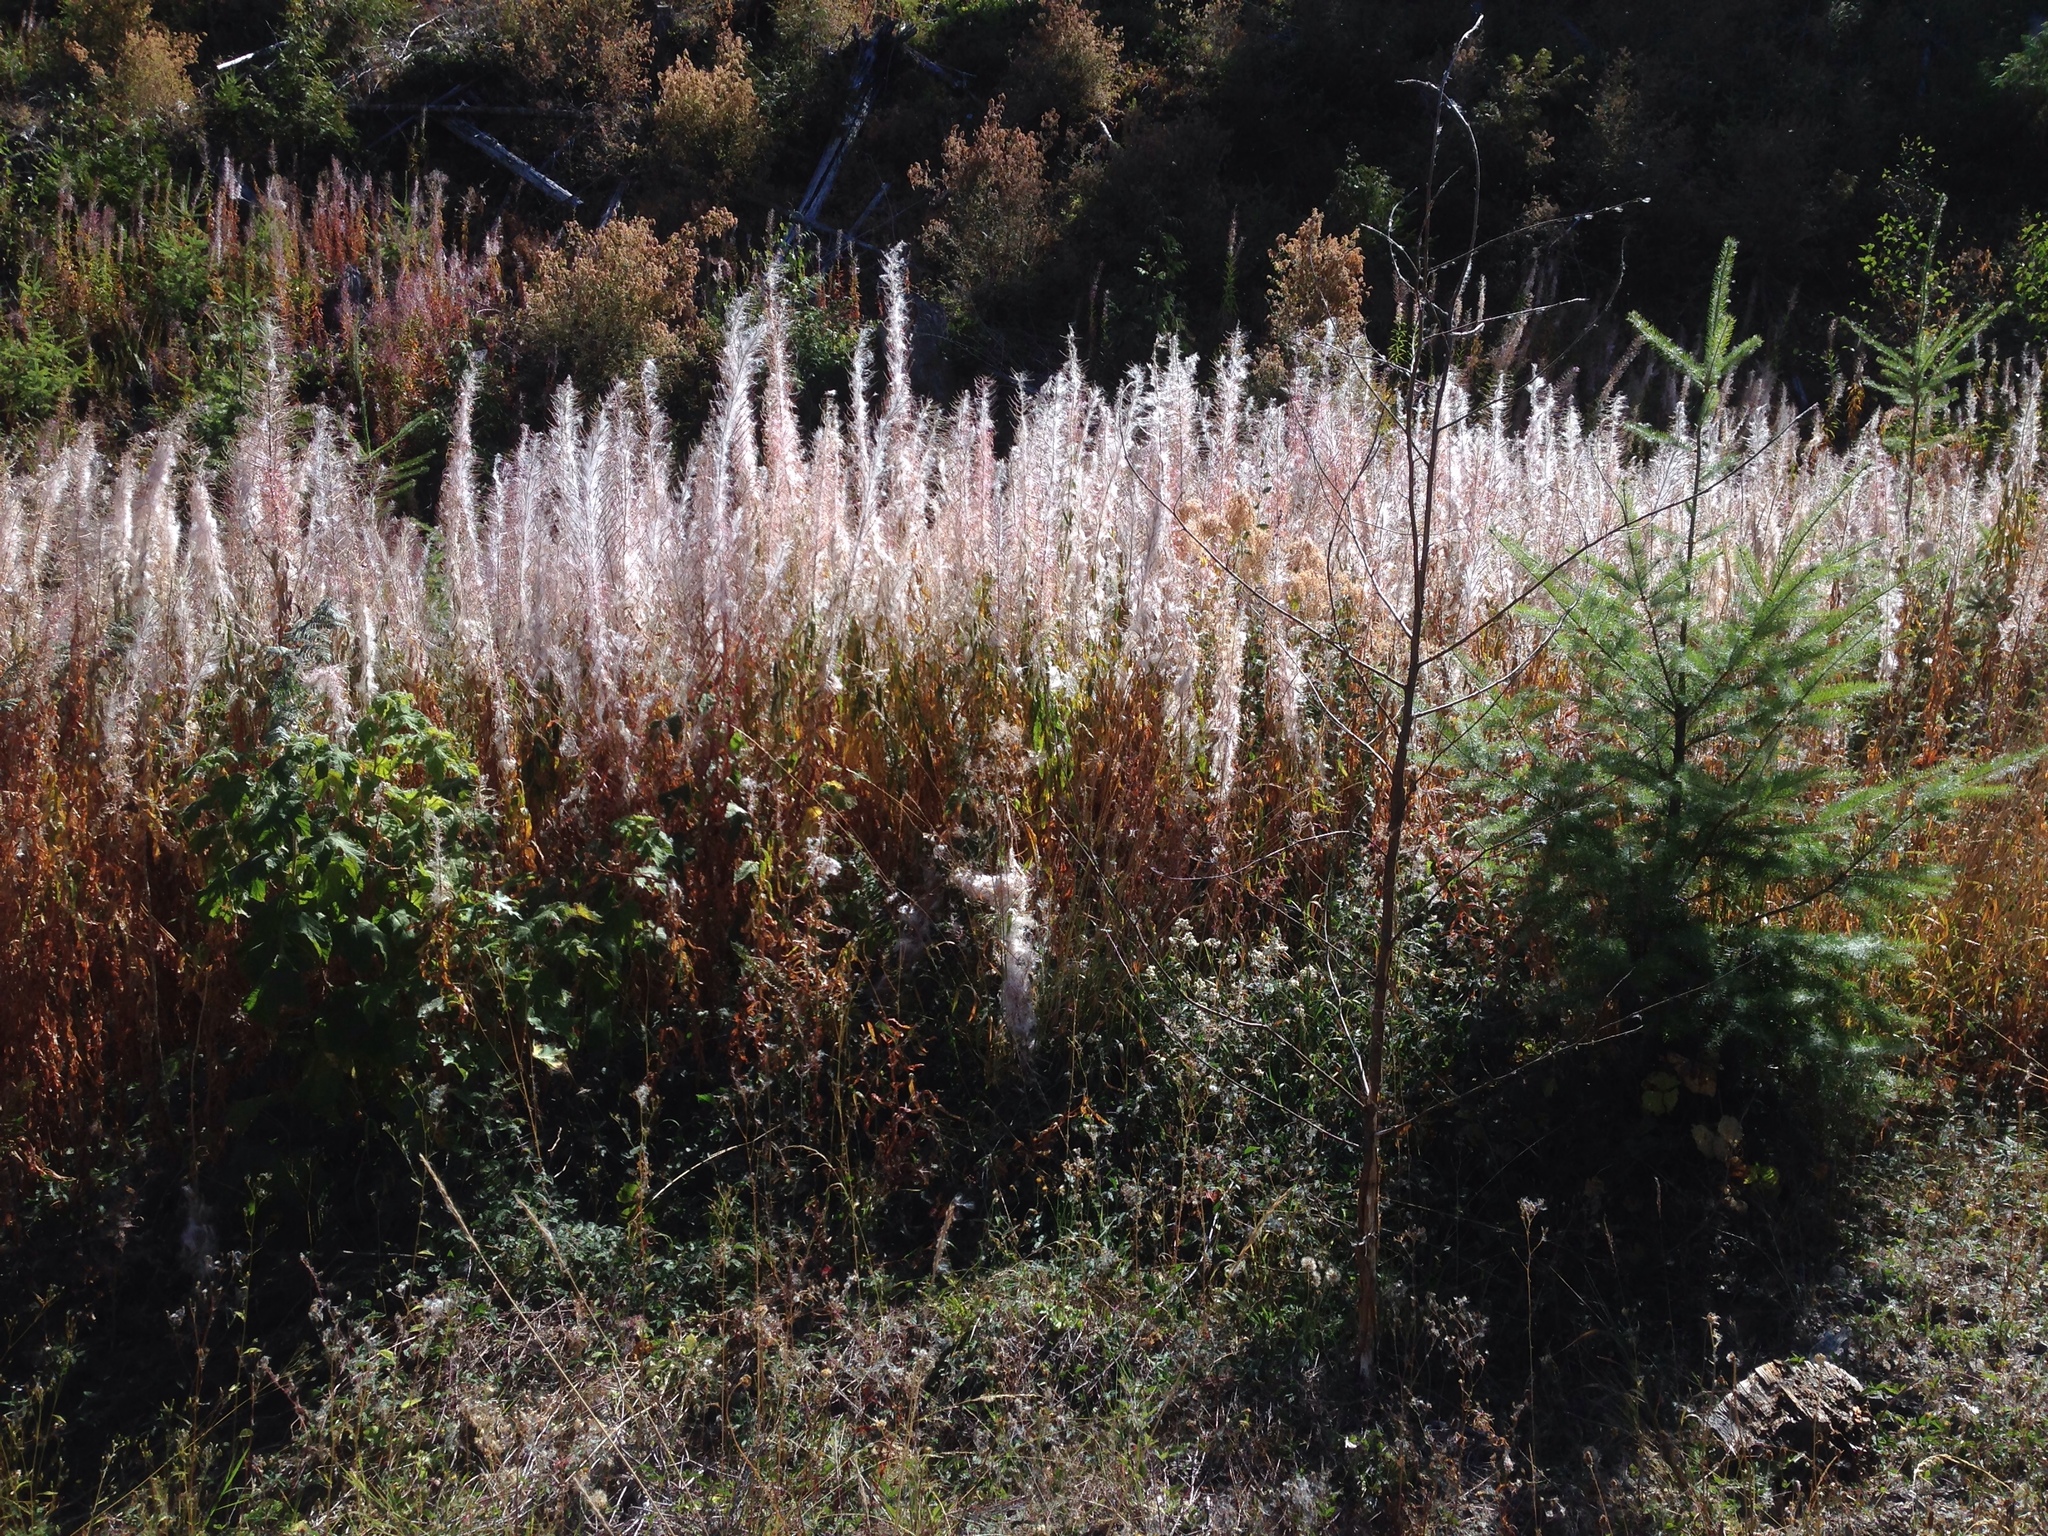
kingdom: Plantae
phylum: Tracheophyta
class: Magnoliopsida
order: Myrtales
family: Onagraceae
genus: Chamaenerion
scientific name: Chamaenerion angustifolium
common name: Fireweed
